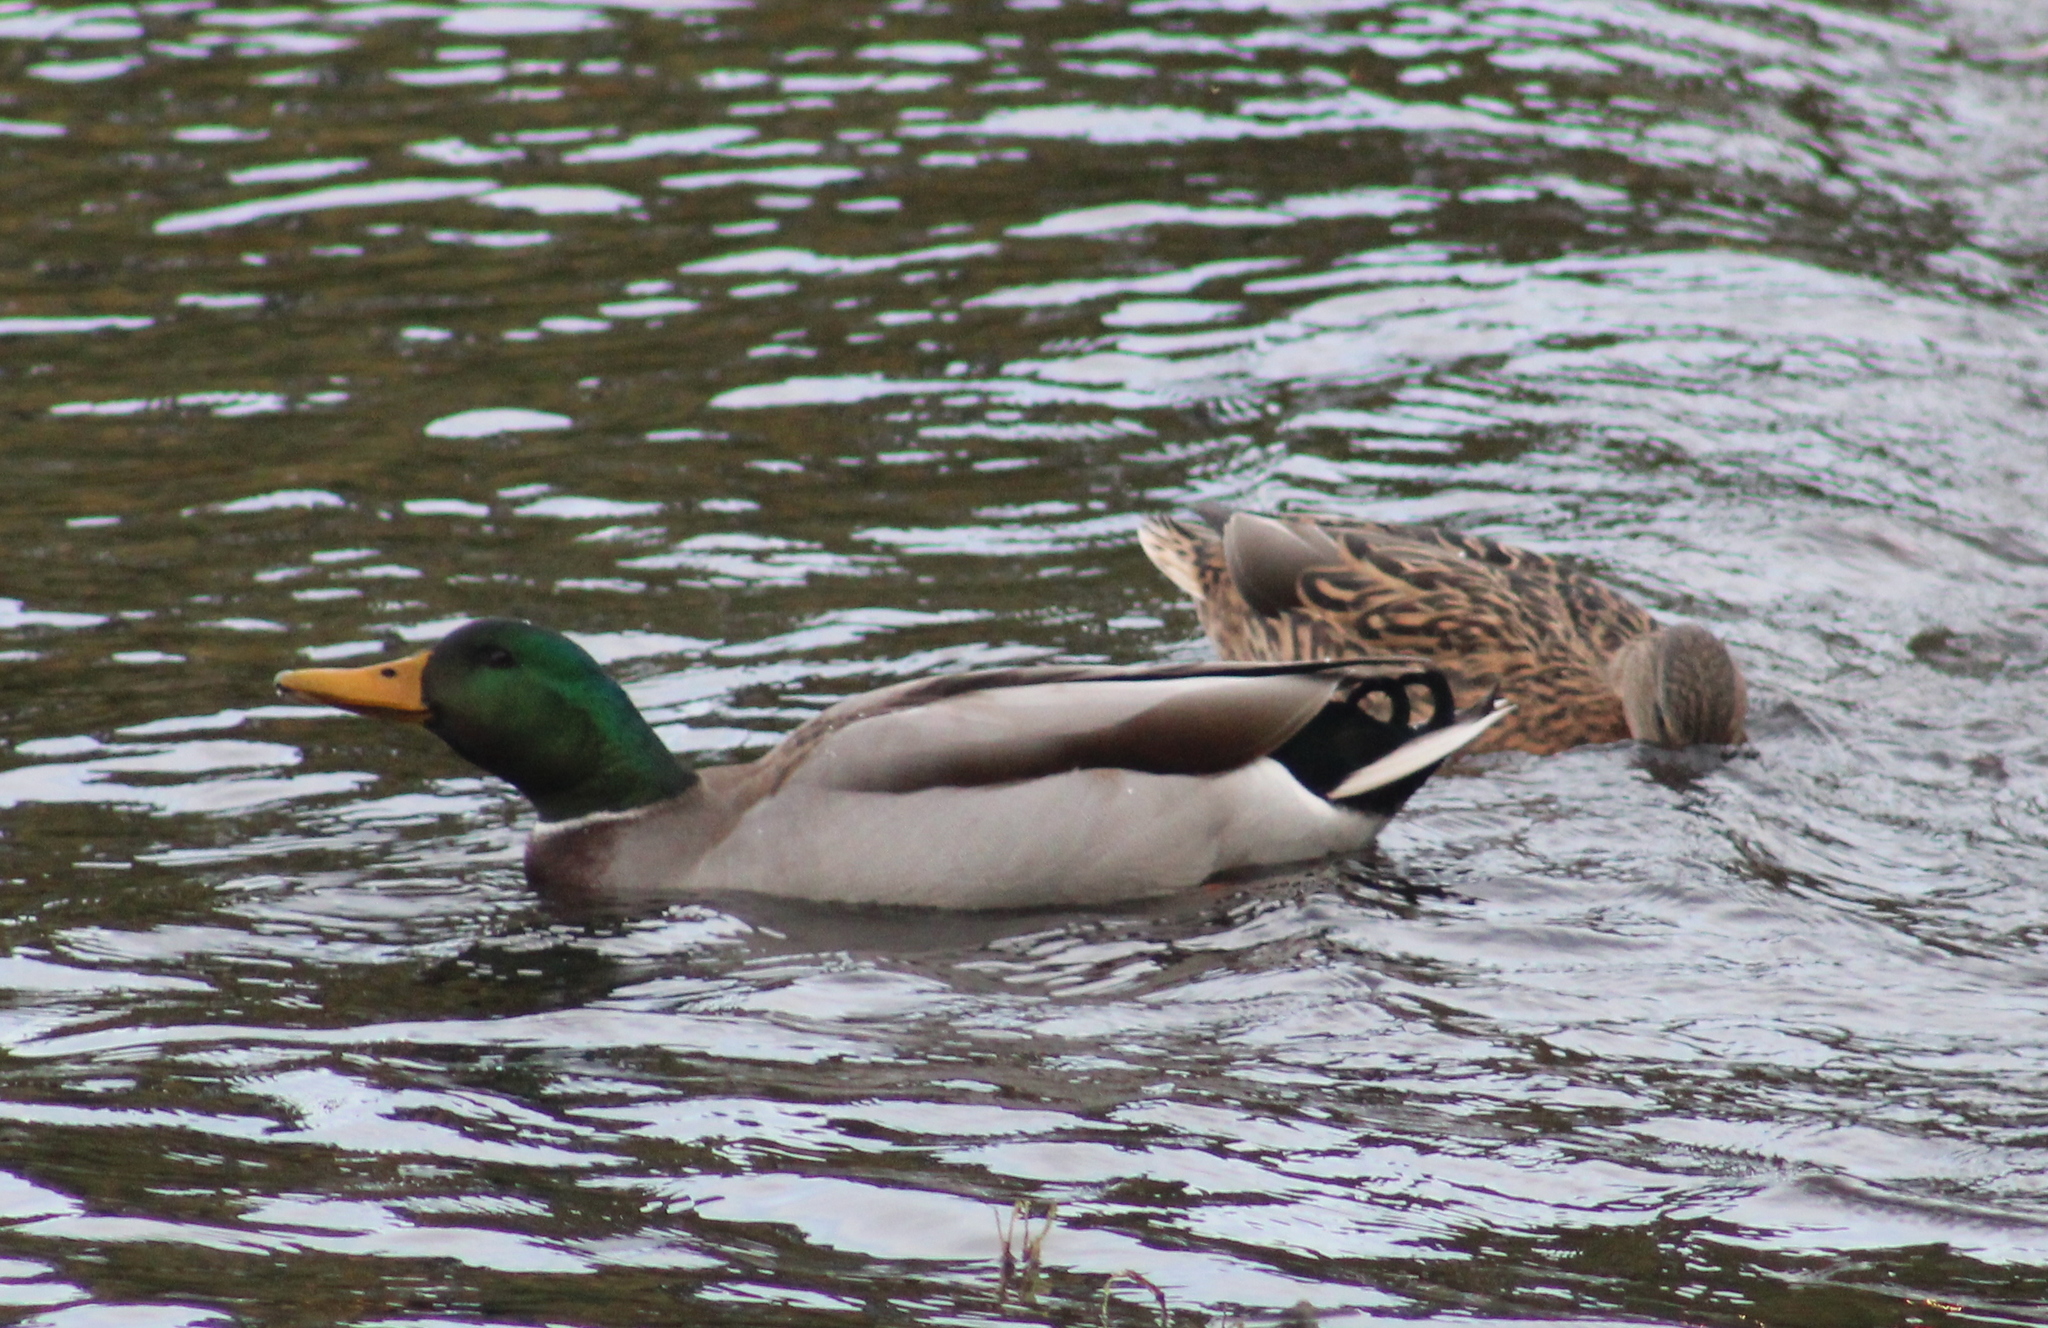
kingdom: Animalia
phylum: Chordata
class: Aves
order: Anseriformes
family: Anatidae
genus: Anas
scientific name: Anas platyrhynchos
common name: Mallard
